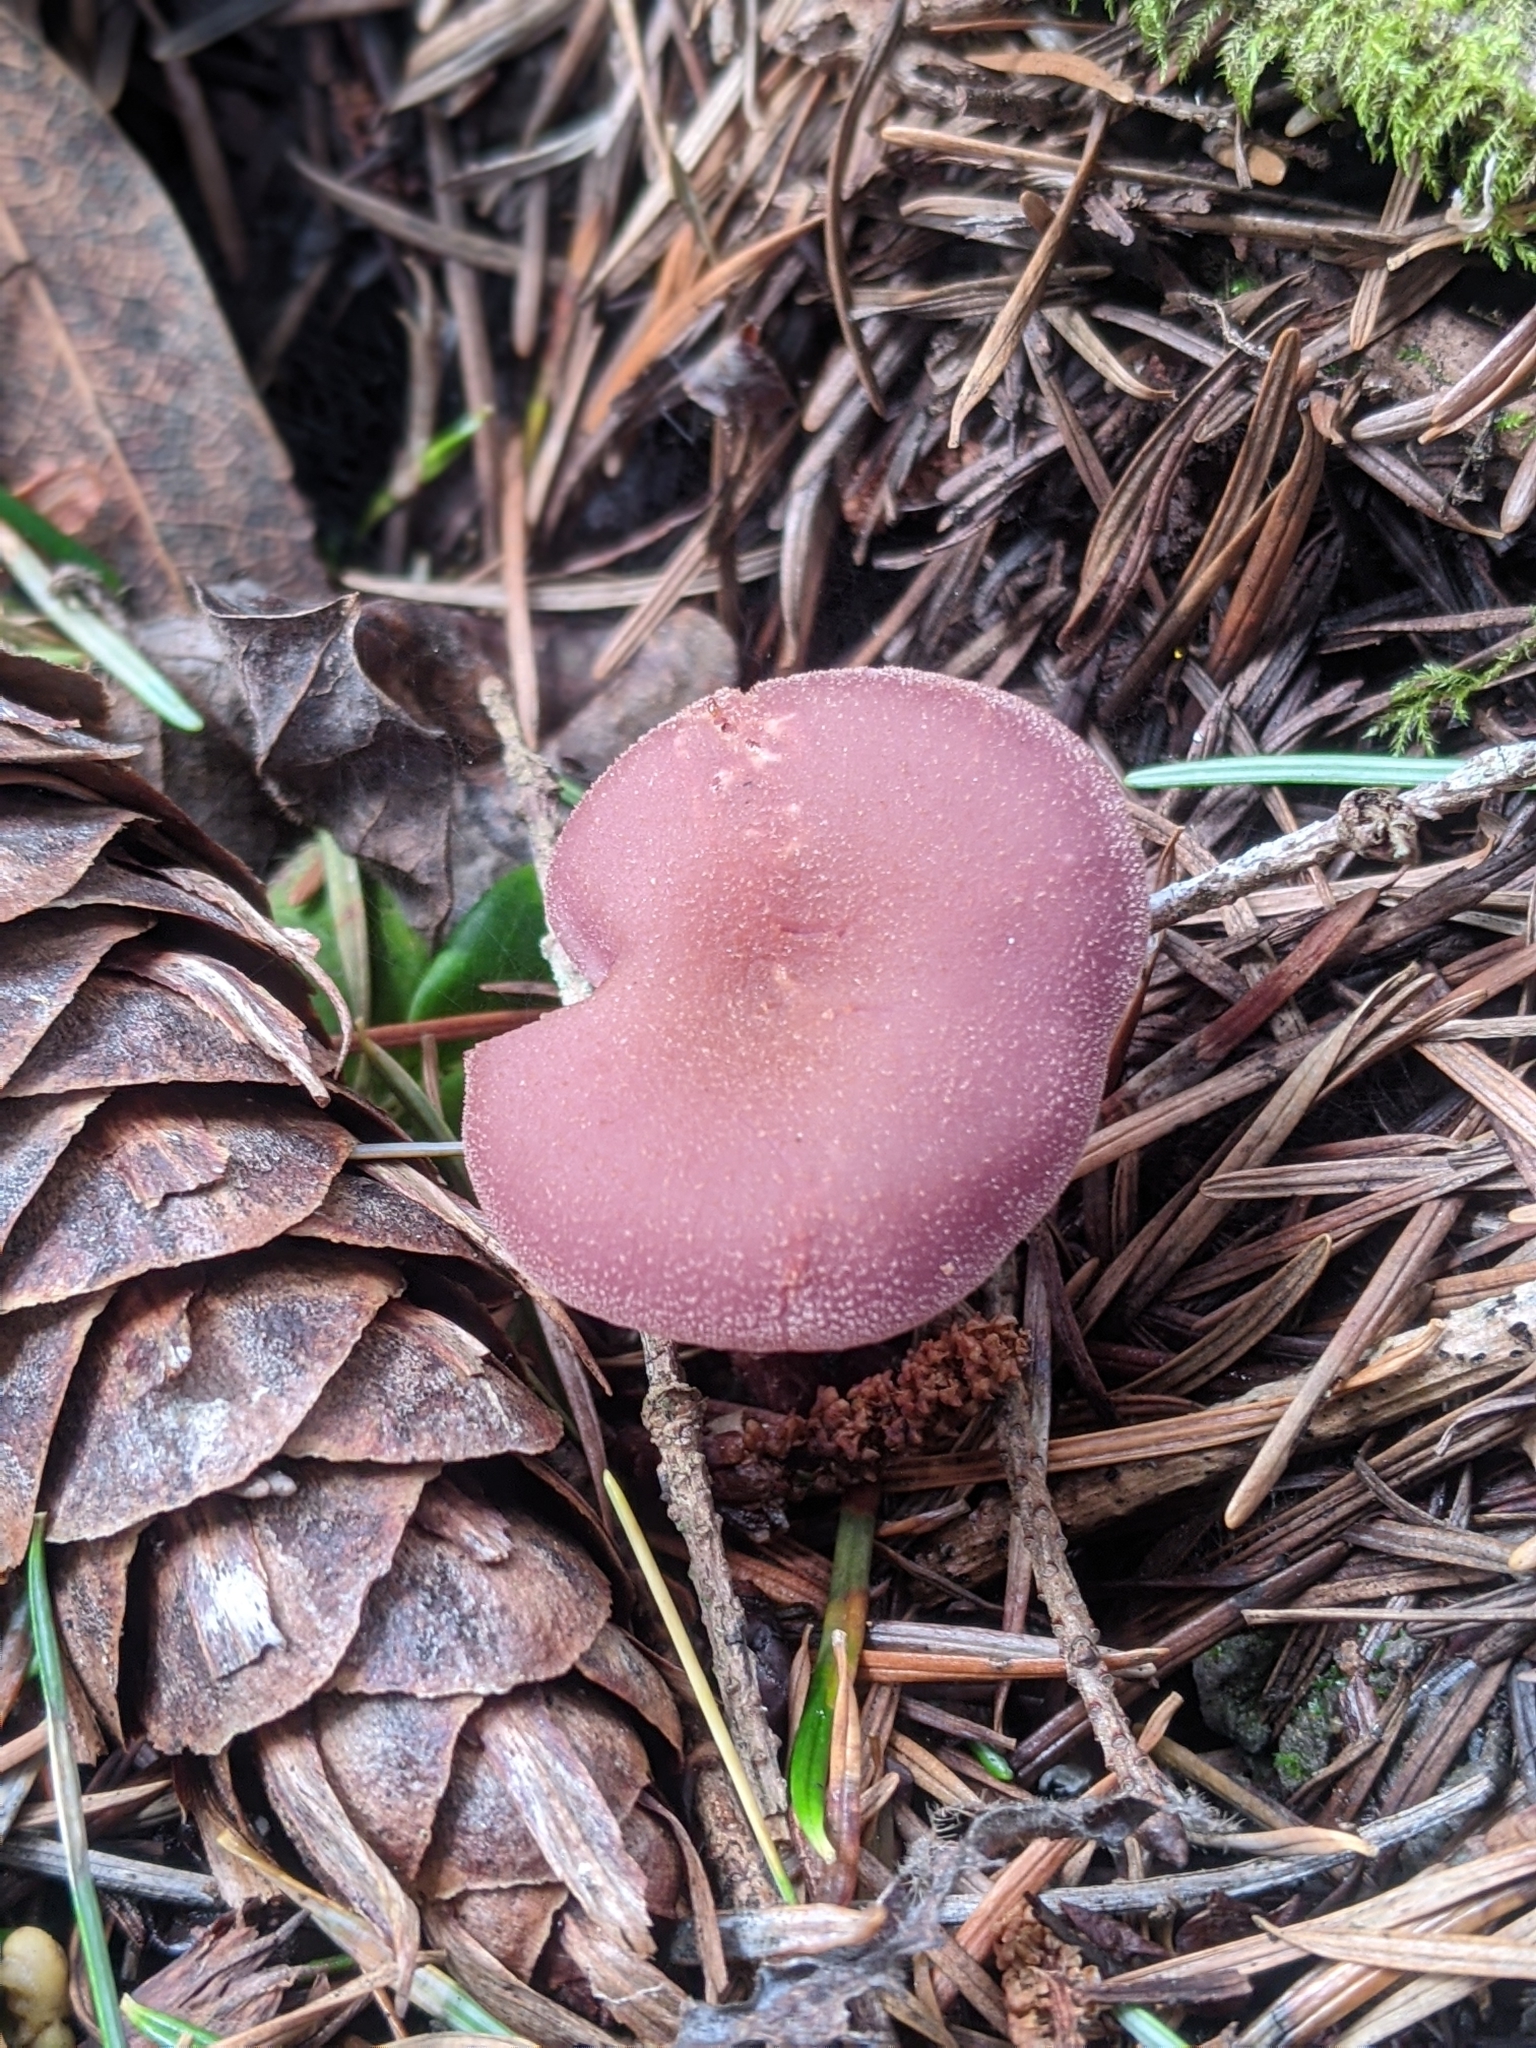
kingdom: Fungi
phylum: Basidiomycota
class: Agaricomycetes
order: Agaricales
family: Hydnangiaceae
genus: Laccaria
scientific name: Laccaria amethysteo-occidentalis
